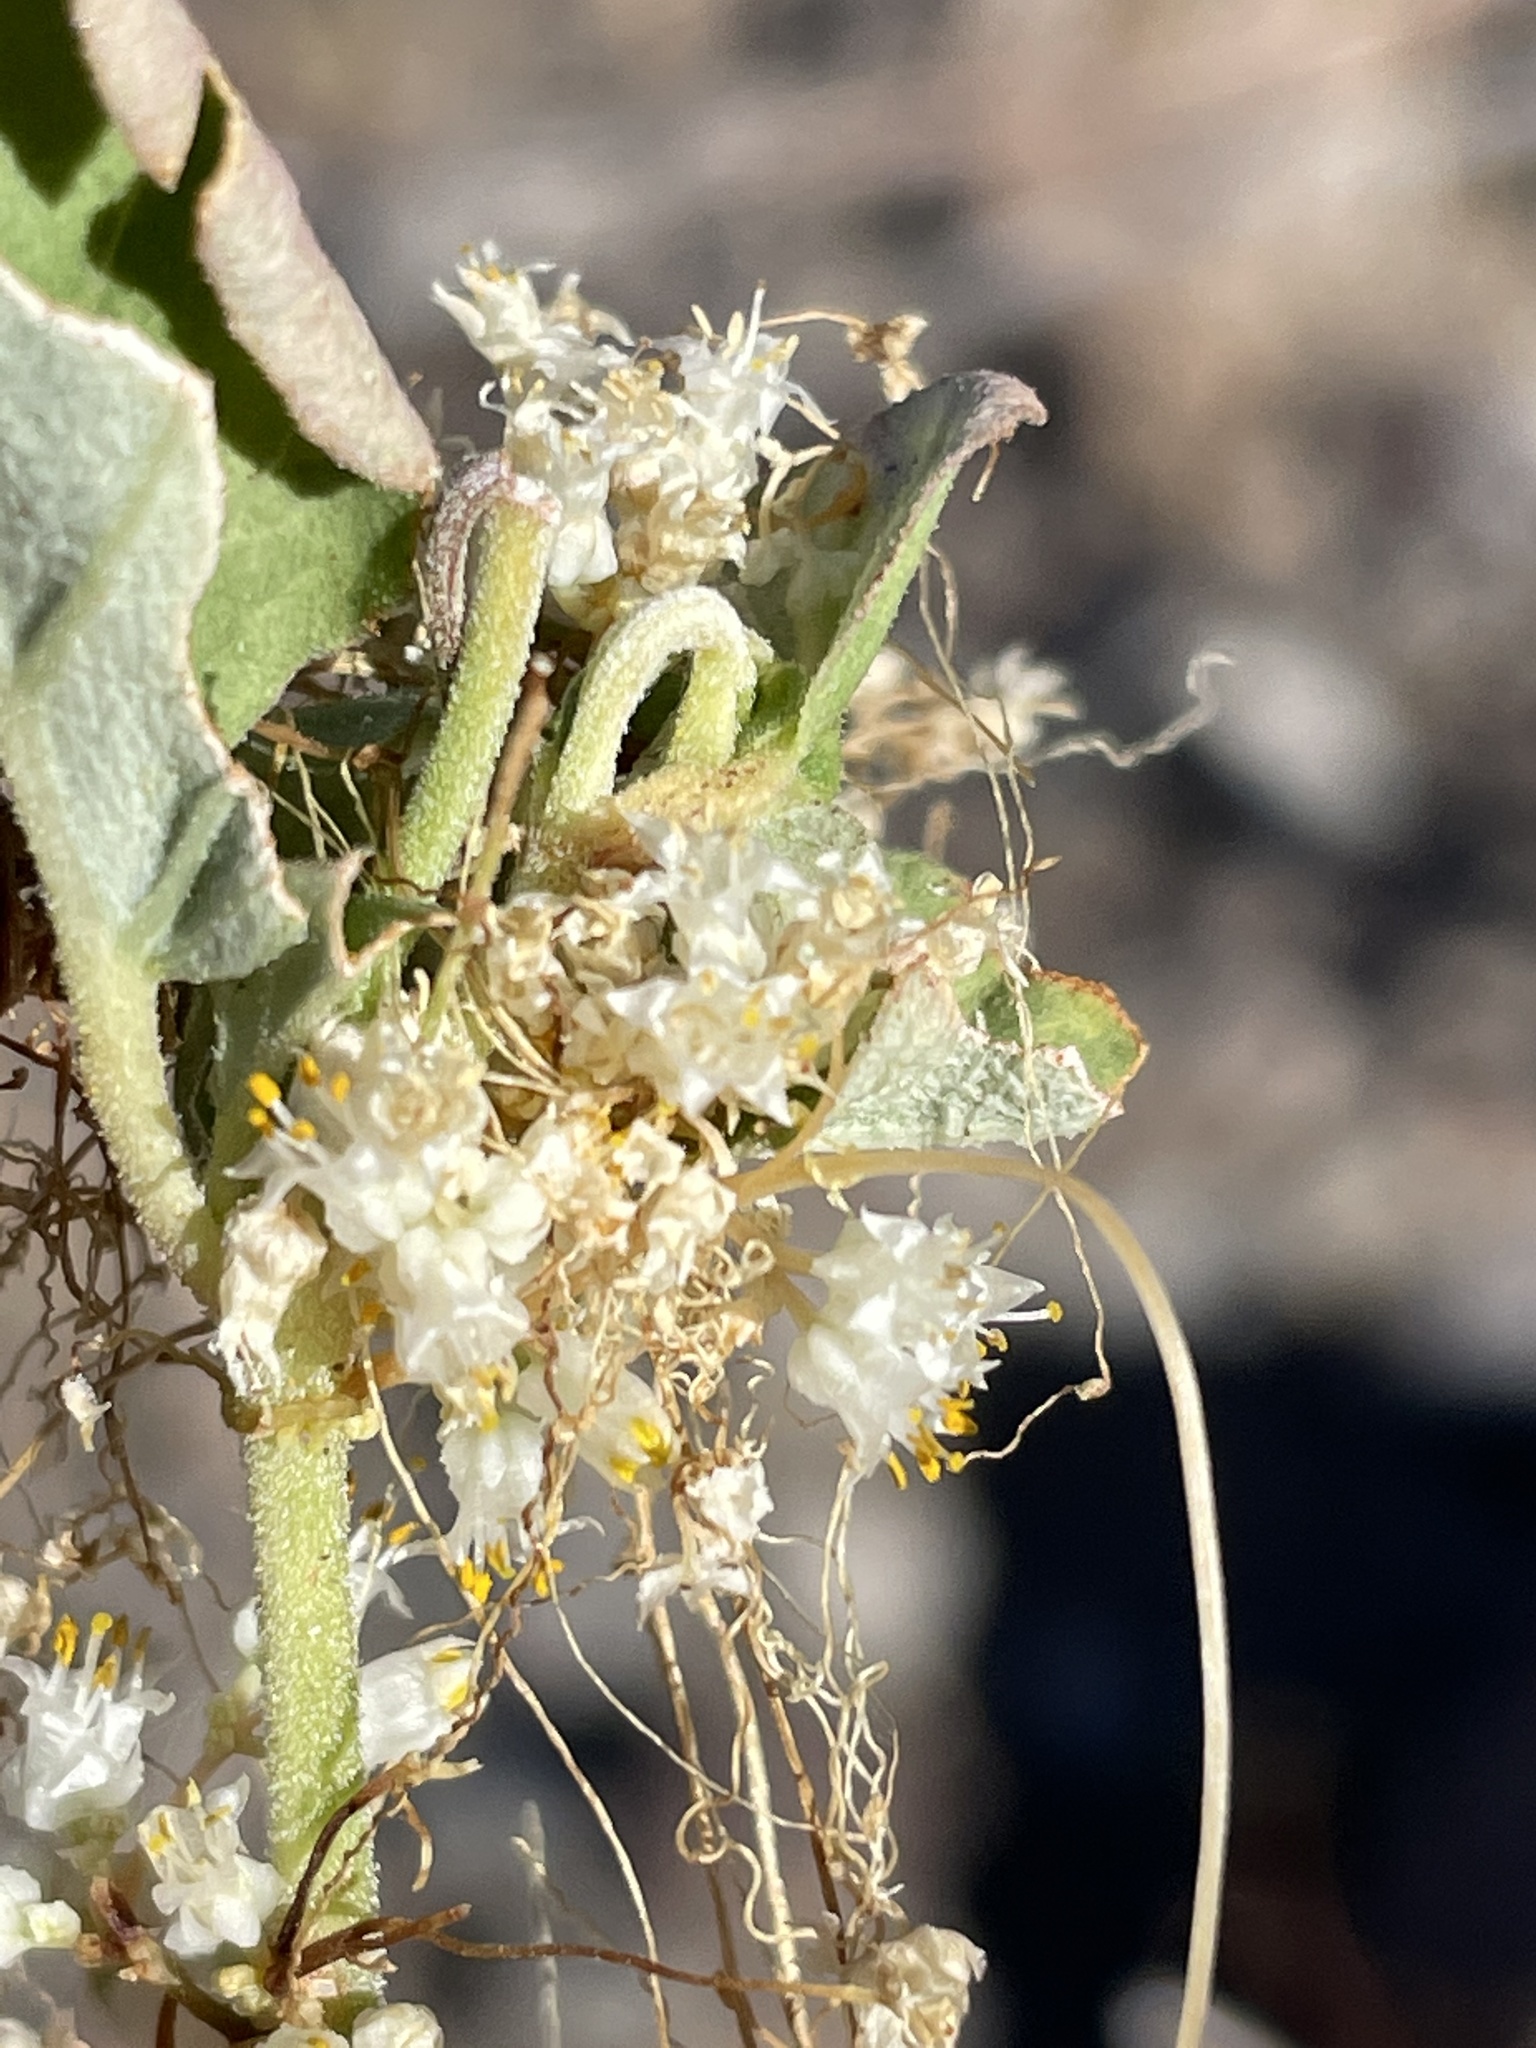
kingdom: Plantae
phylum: Tracheophyta
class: Magnoliopsida
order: Solanales
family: Convolvulaceae
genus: Cuscuta
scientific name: Cuscuta tuberculata
